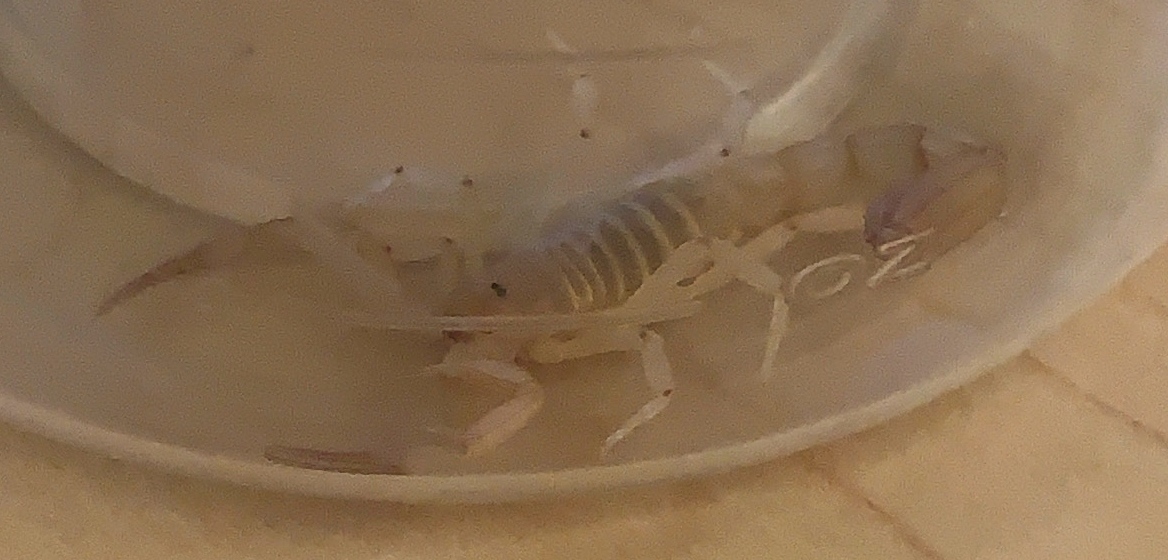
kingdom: Animalia
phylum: Arthropoda
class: Arachnida
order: Scorpiones
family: Vaejovidae
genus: Paravaejovis
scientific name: Paravaejovis waeringi
